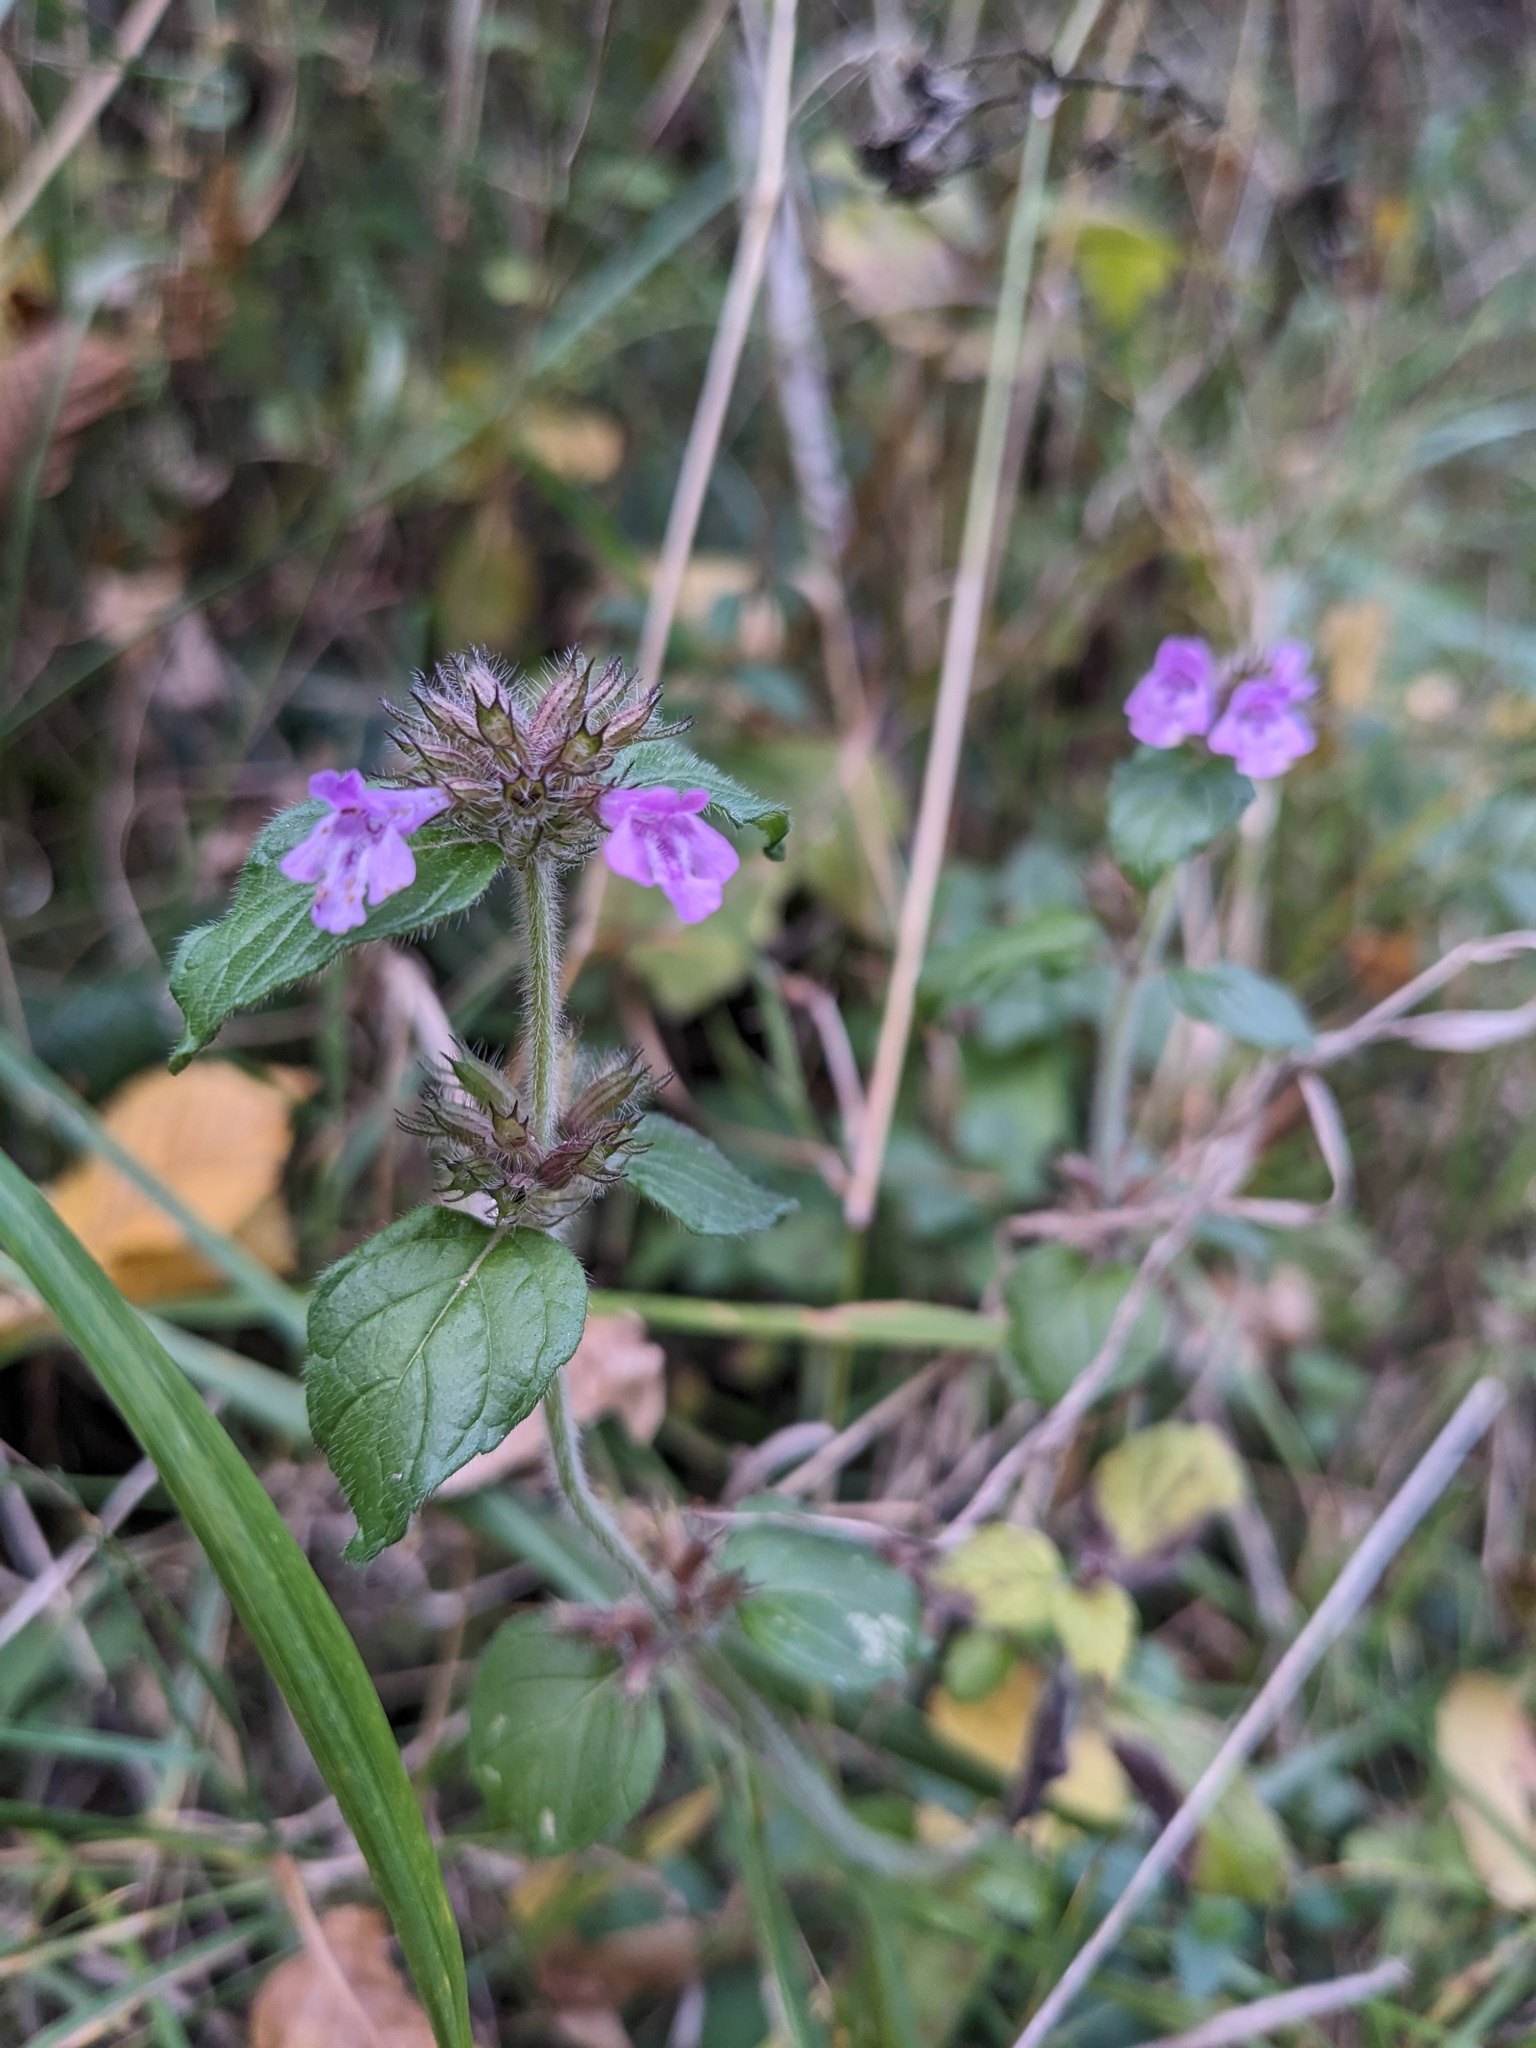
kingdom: Plantae
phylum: Tracheophyta
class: Magnoliopsida
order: Lamiales
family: Lamiaceae
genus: Clinopodium
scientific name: Clinopodium vulgare
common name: Wild basil
